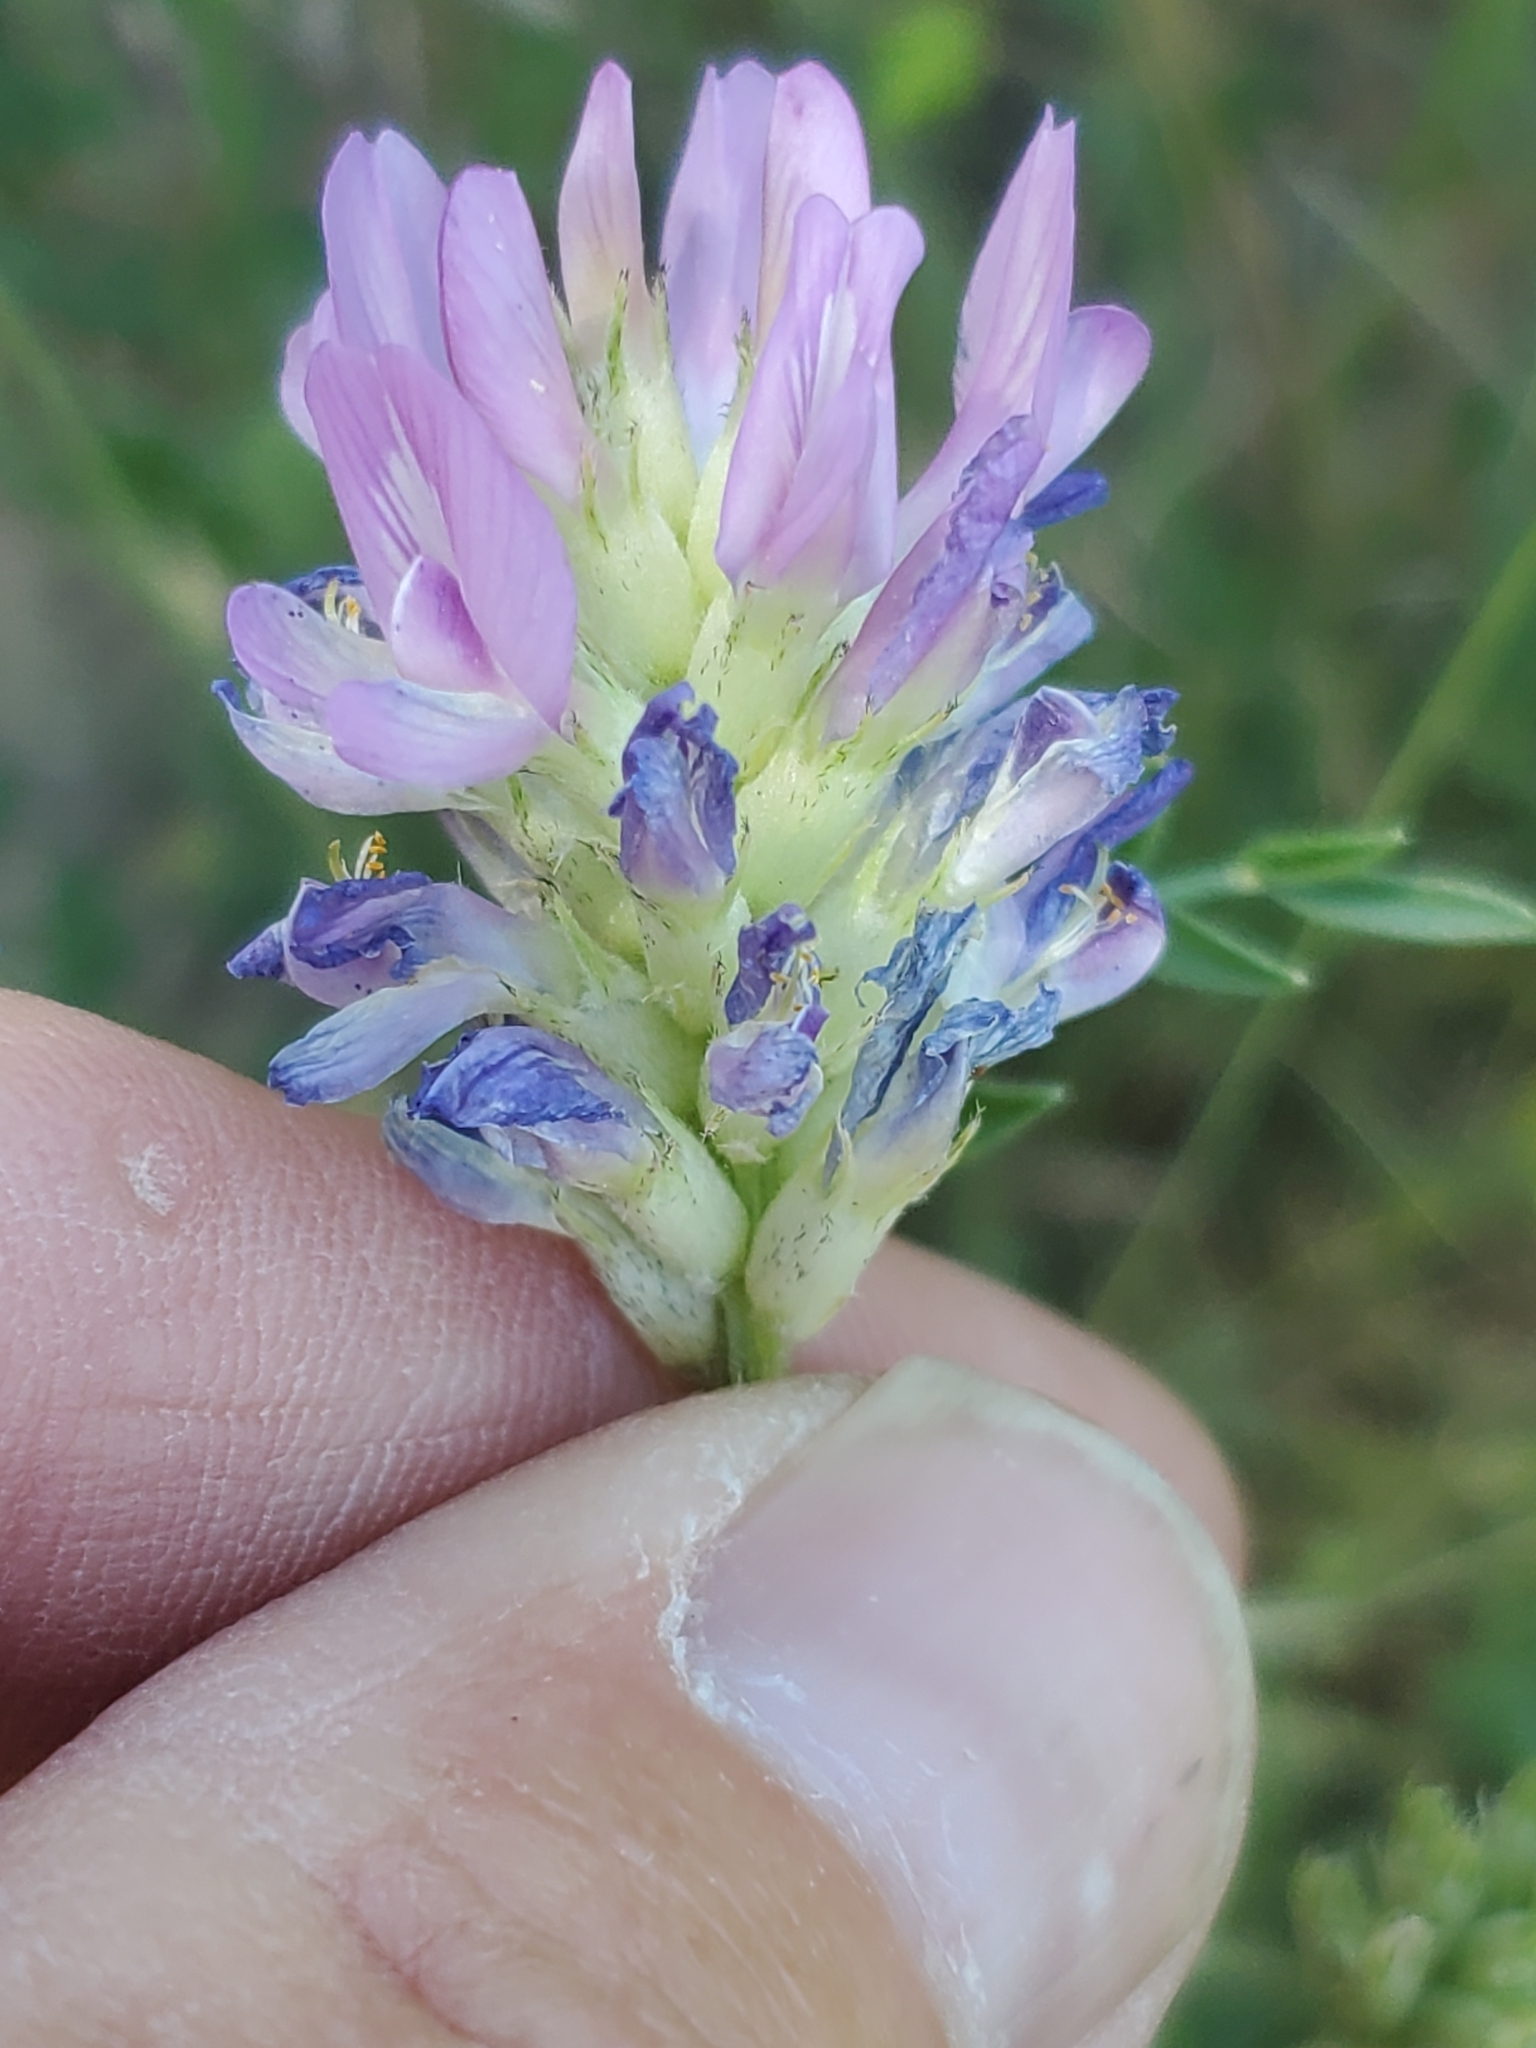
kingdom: Plantae
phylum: Tracheophyta
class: Magnoliopsida
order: Fabales
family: Fabaceae
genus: Astragalus
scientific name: Astragalus laxmannii
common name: Laxmann's milk-vetch
